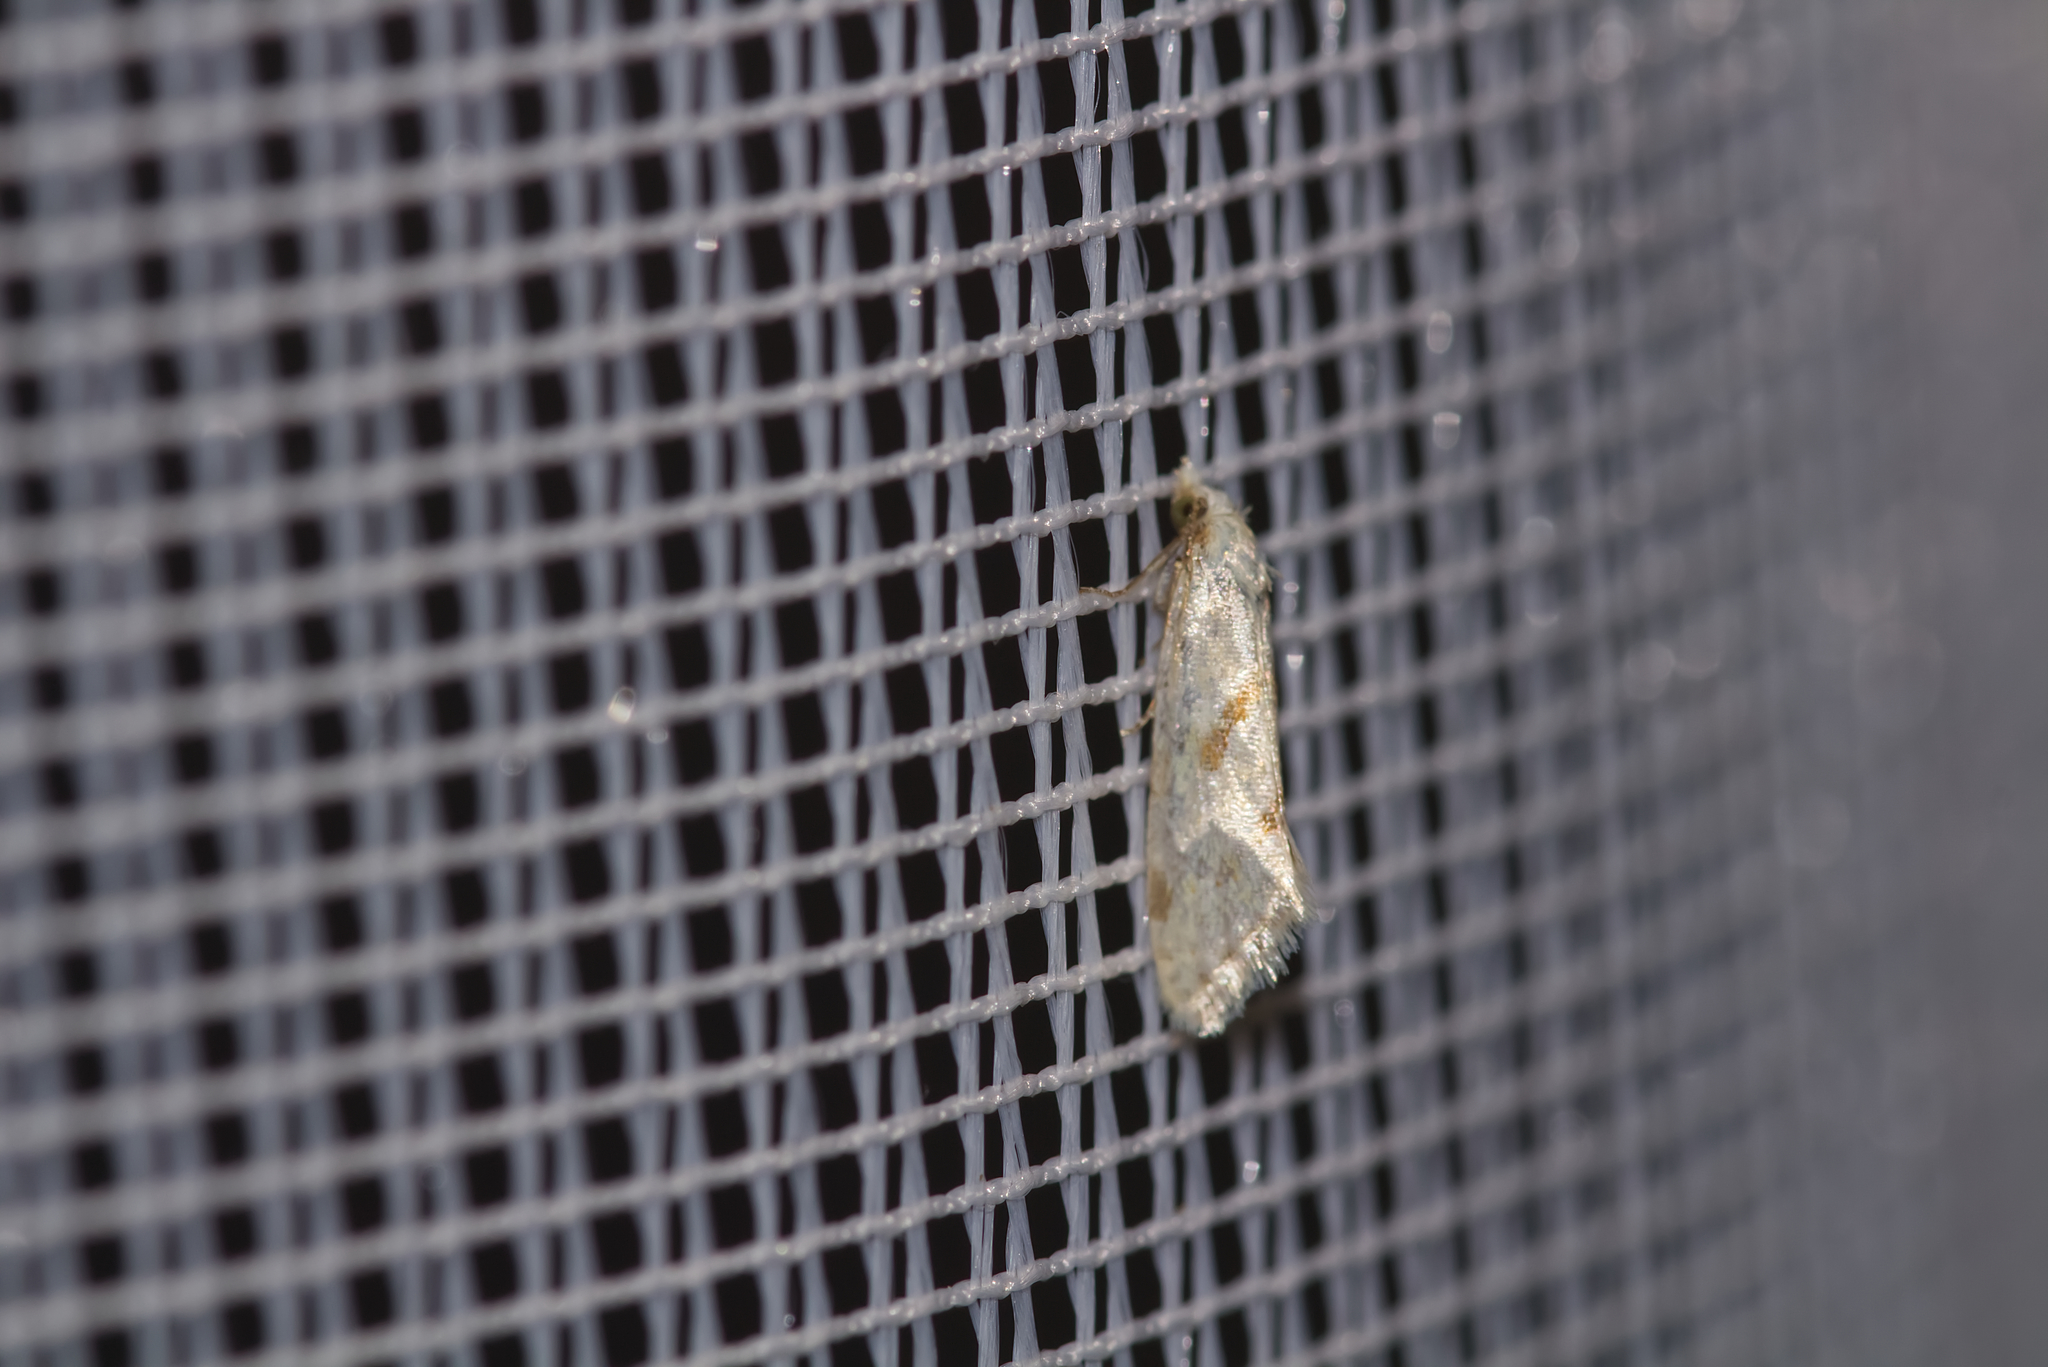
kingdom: Animalia
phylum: Arthropoda
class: Insecta
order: Lepidoptera
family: Tortricidae
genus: Aethes
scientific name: Aethes smeathmanniana
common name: Yarrow conch
